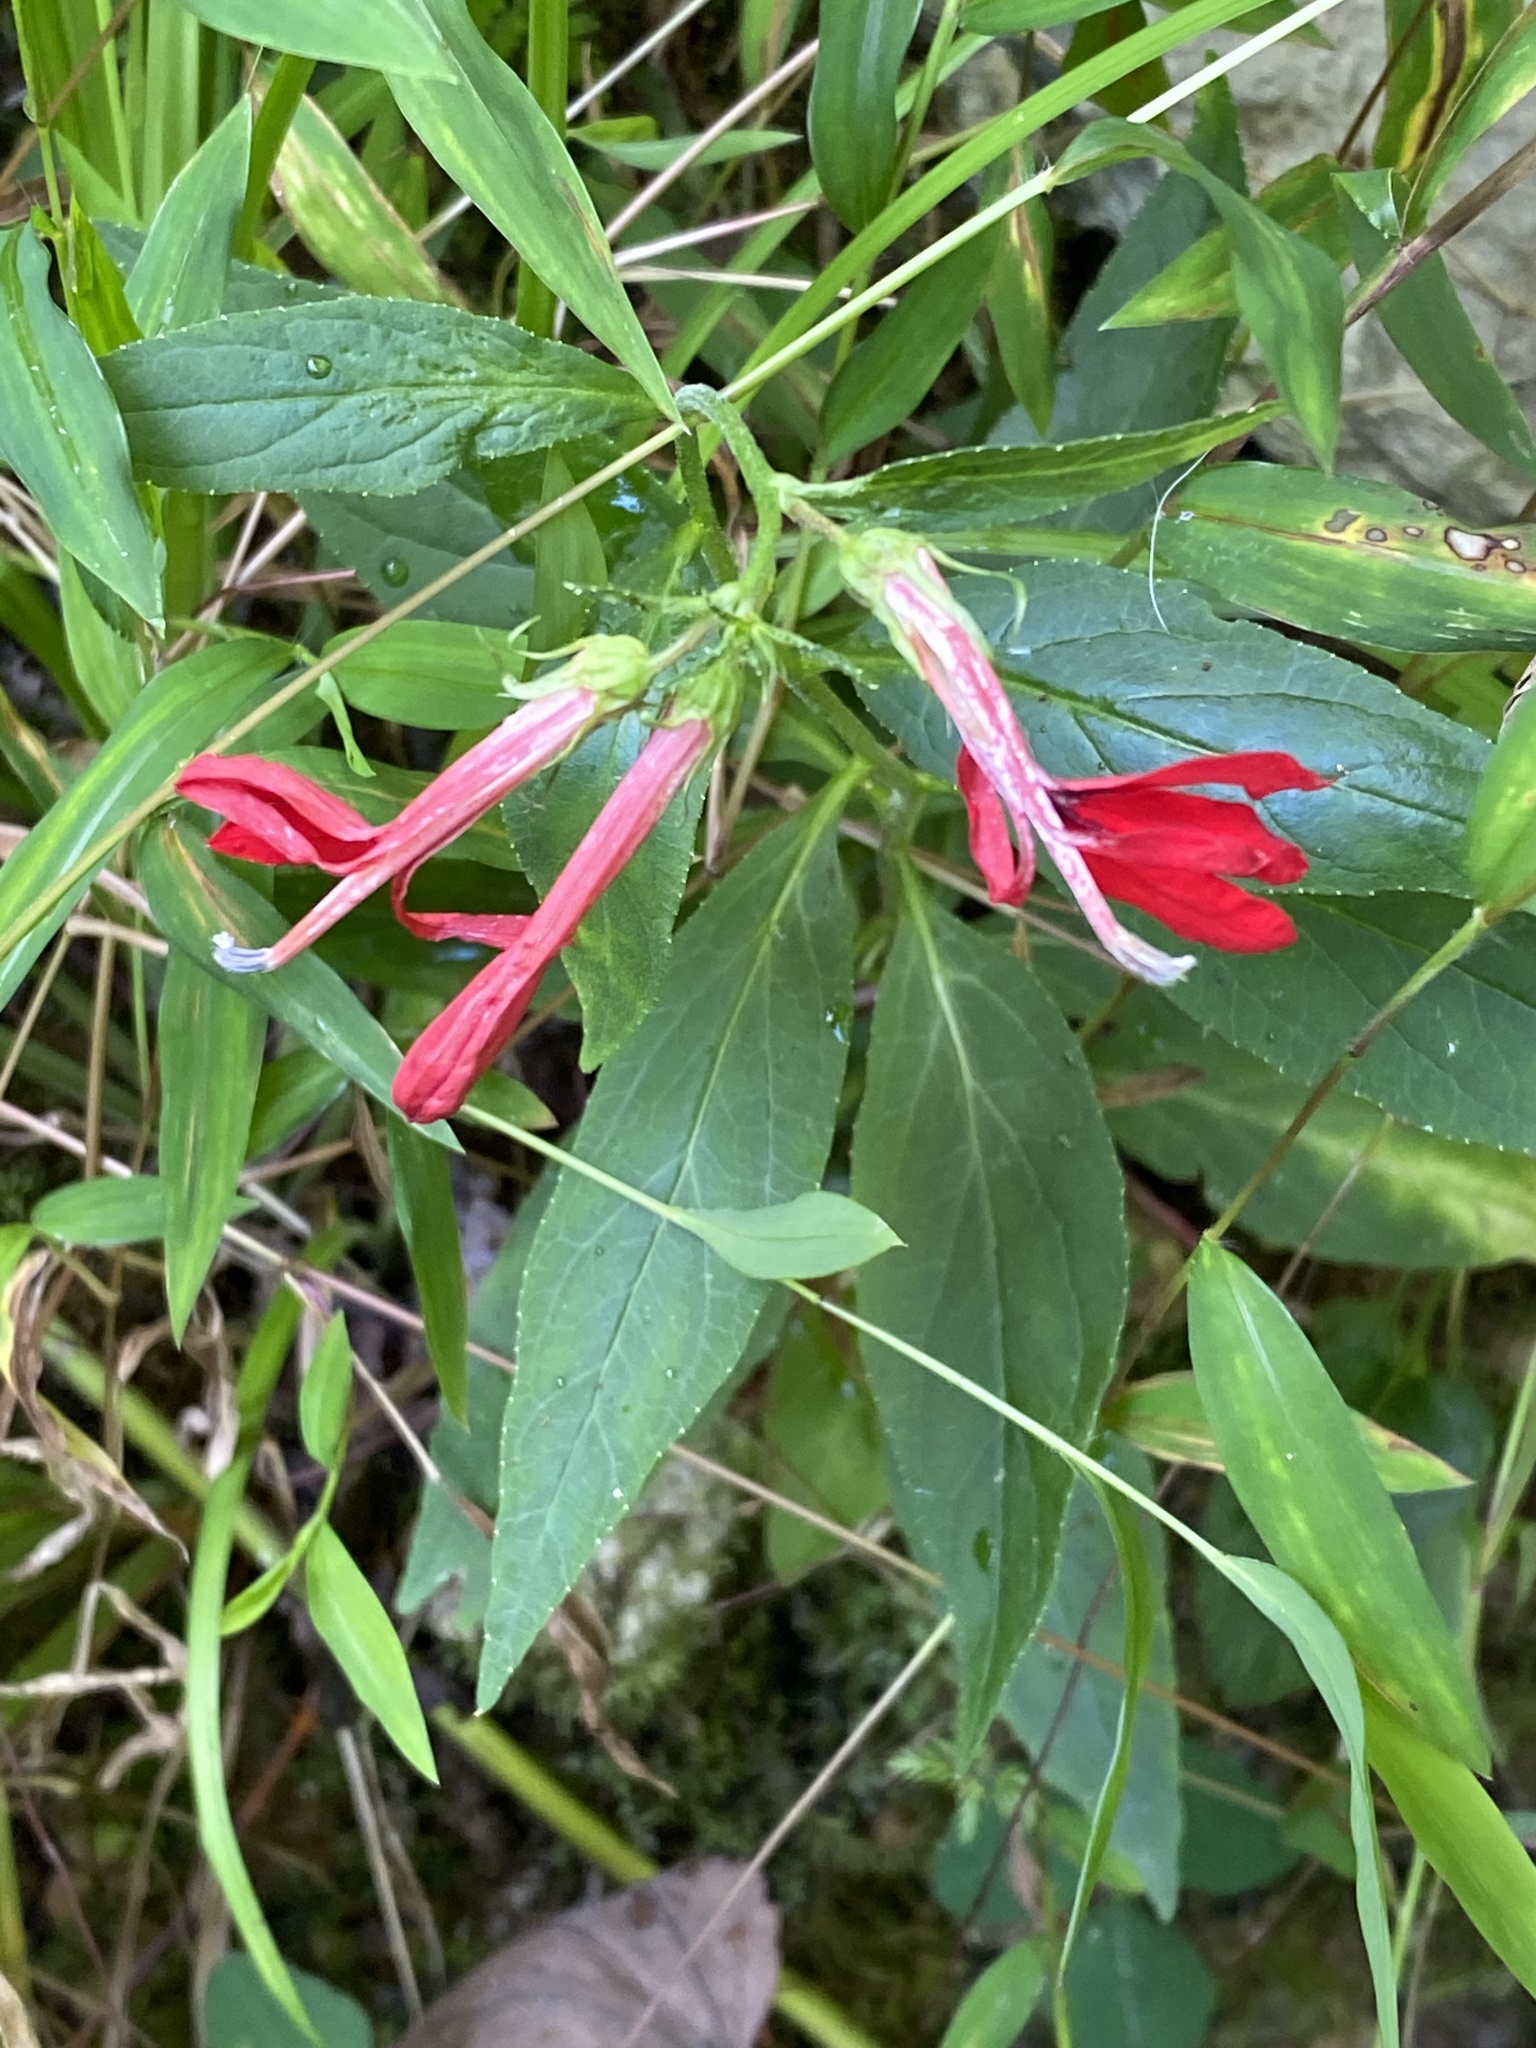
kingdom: Plantae
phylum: Tracheophyta
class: Magnoliopsida
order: Asterales
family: Campanulaceae
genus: Lobelia
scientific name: Lobelia cardinalis
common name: Cardinal flower
